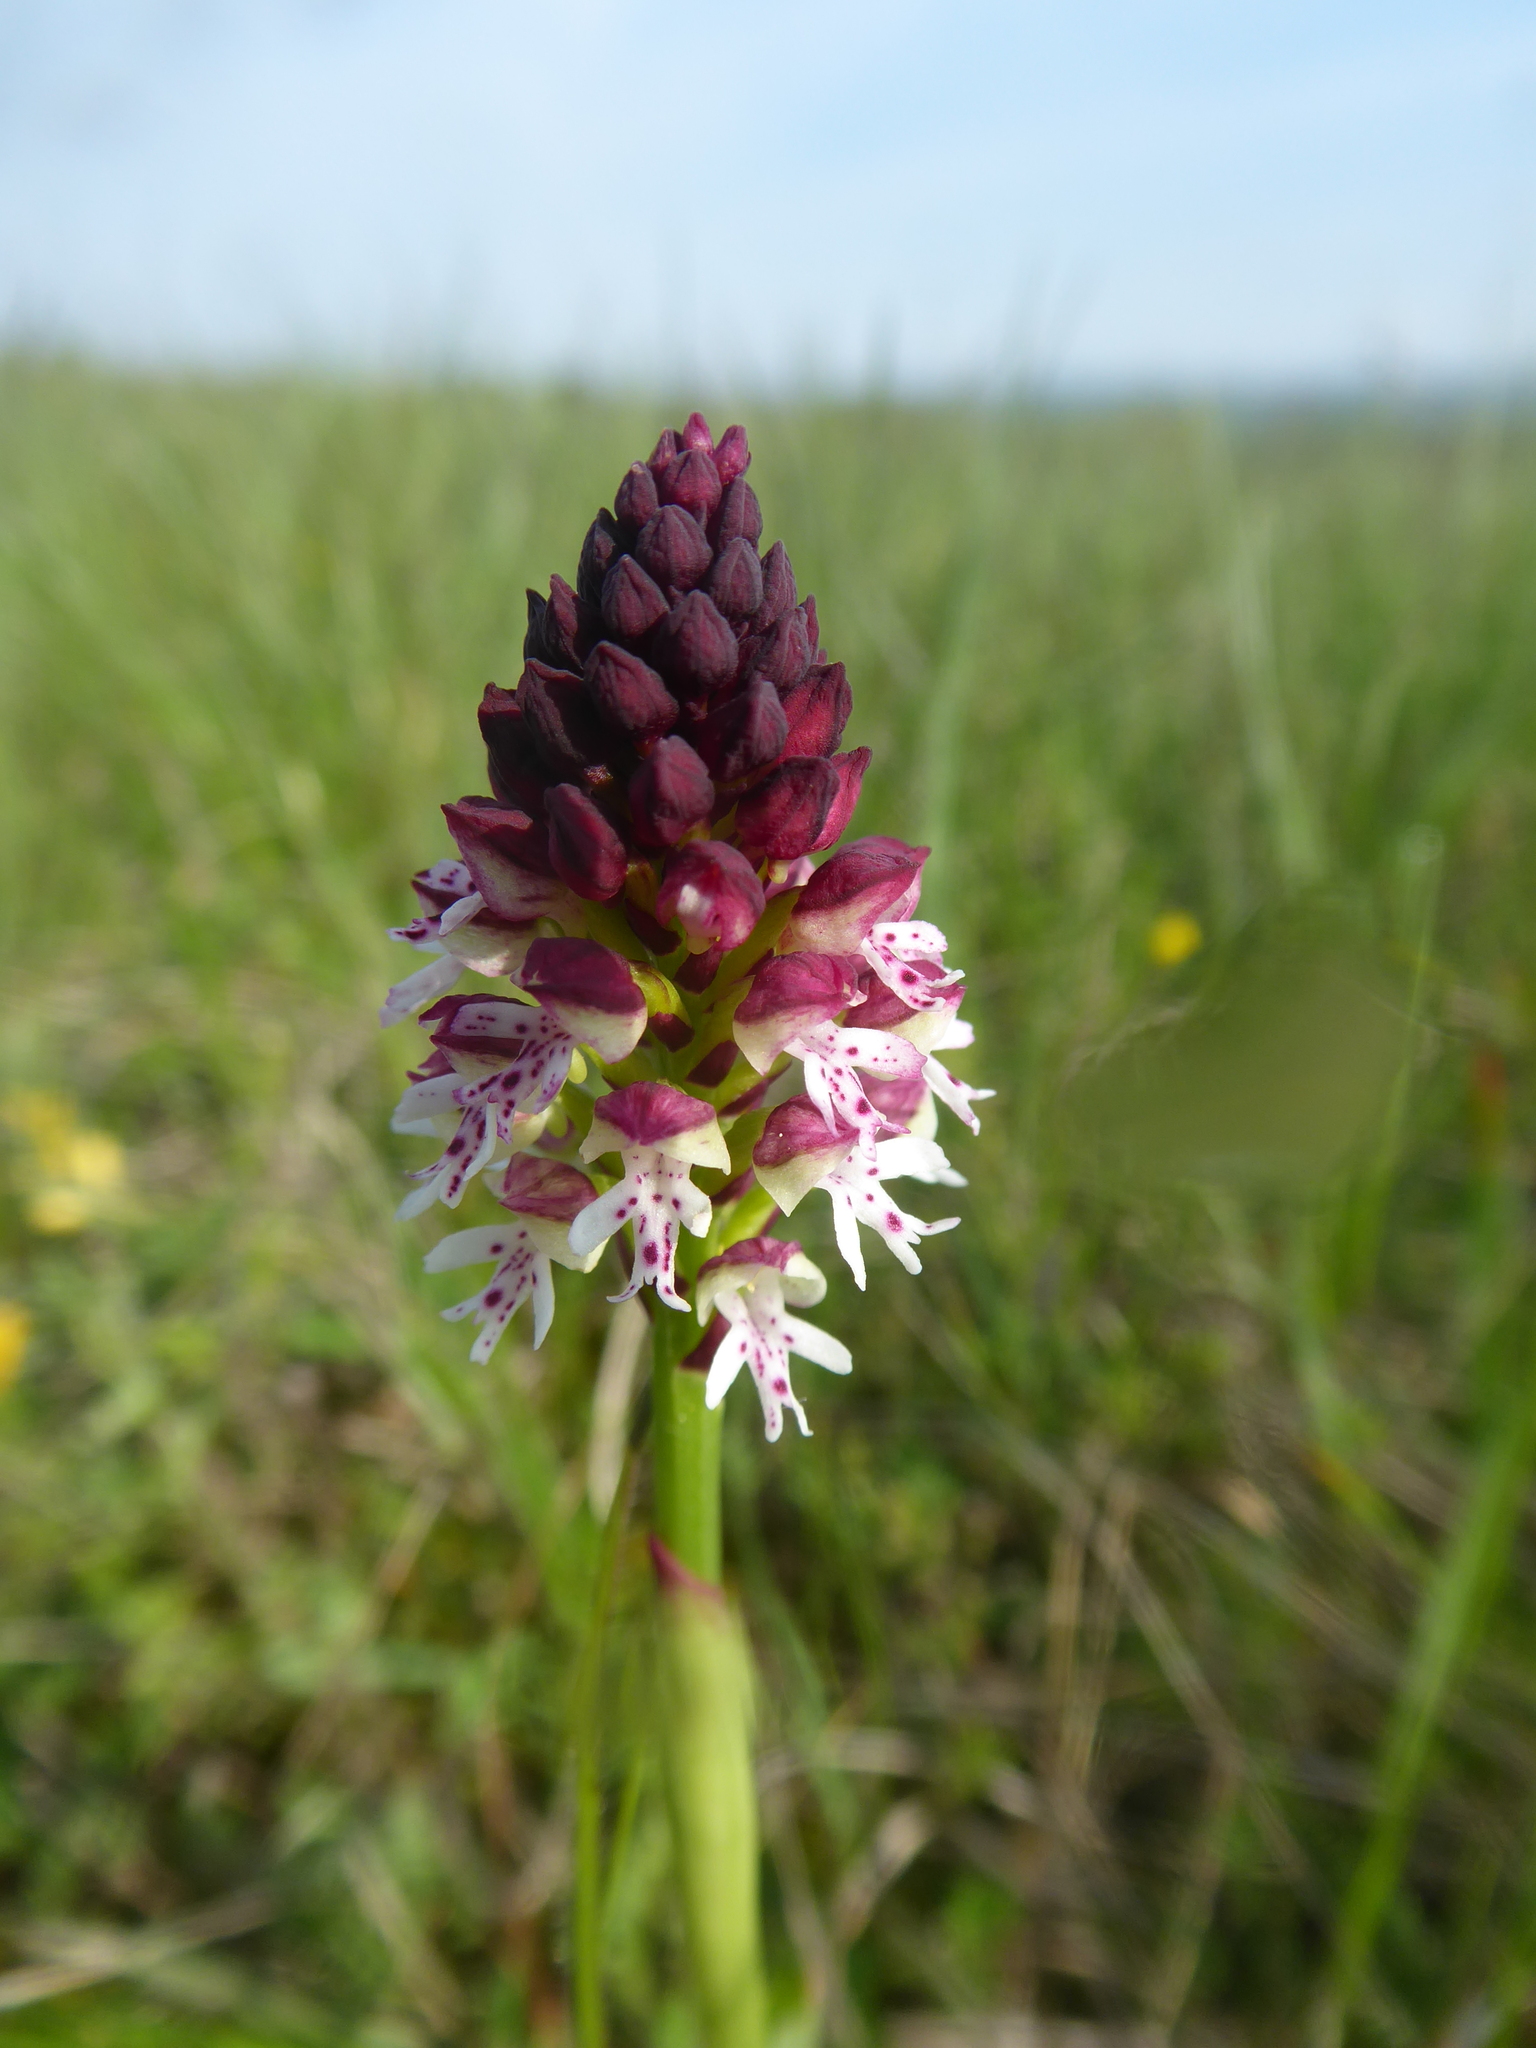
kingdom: Plantae
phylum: Tracheophyta
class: Liliopsida
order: Asparagales
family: Orchidaceae
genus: Neotinea
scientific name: Neotinea ustulata
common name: Burnt orchid
